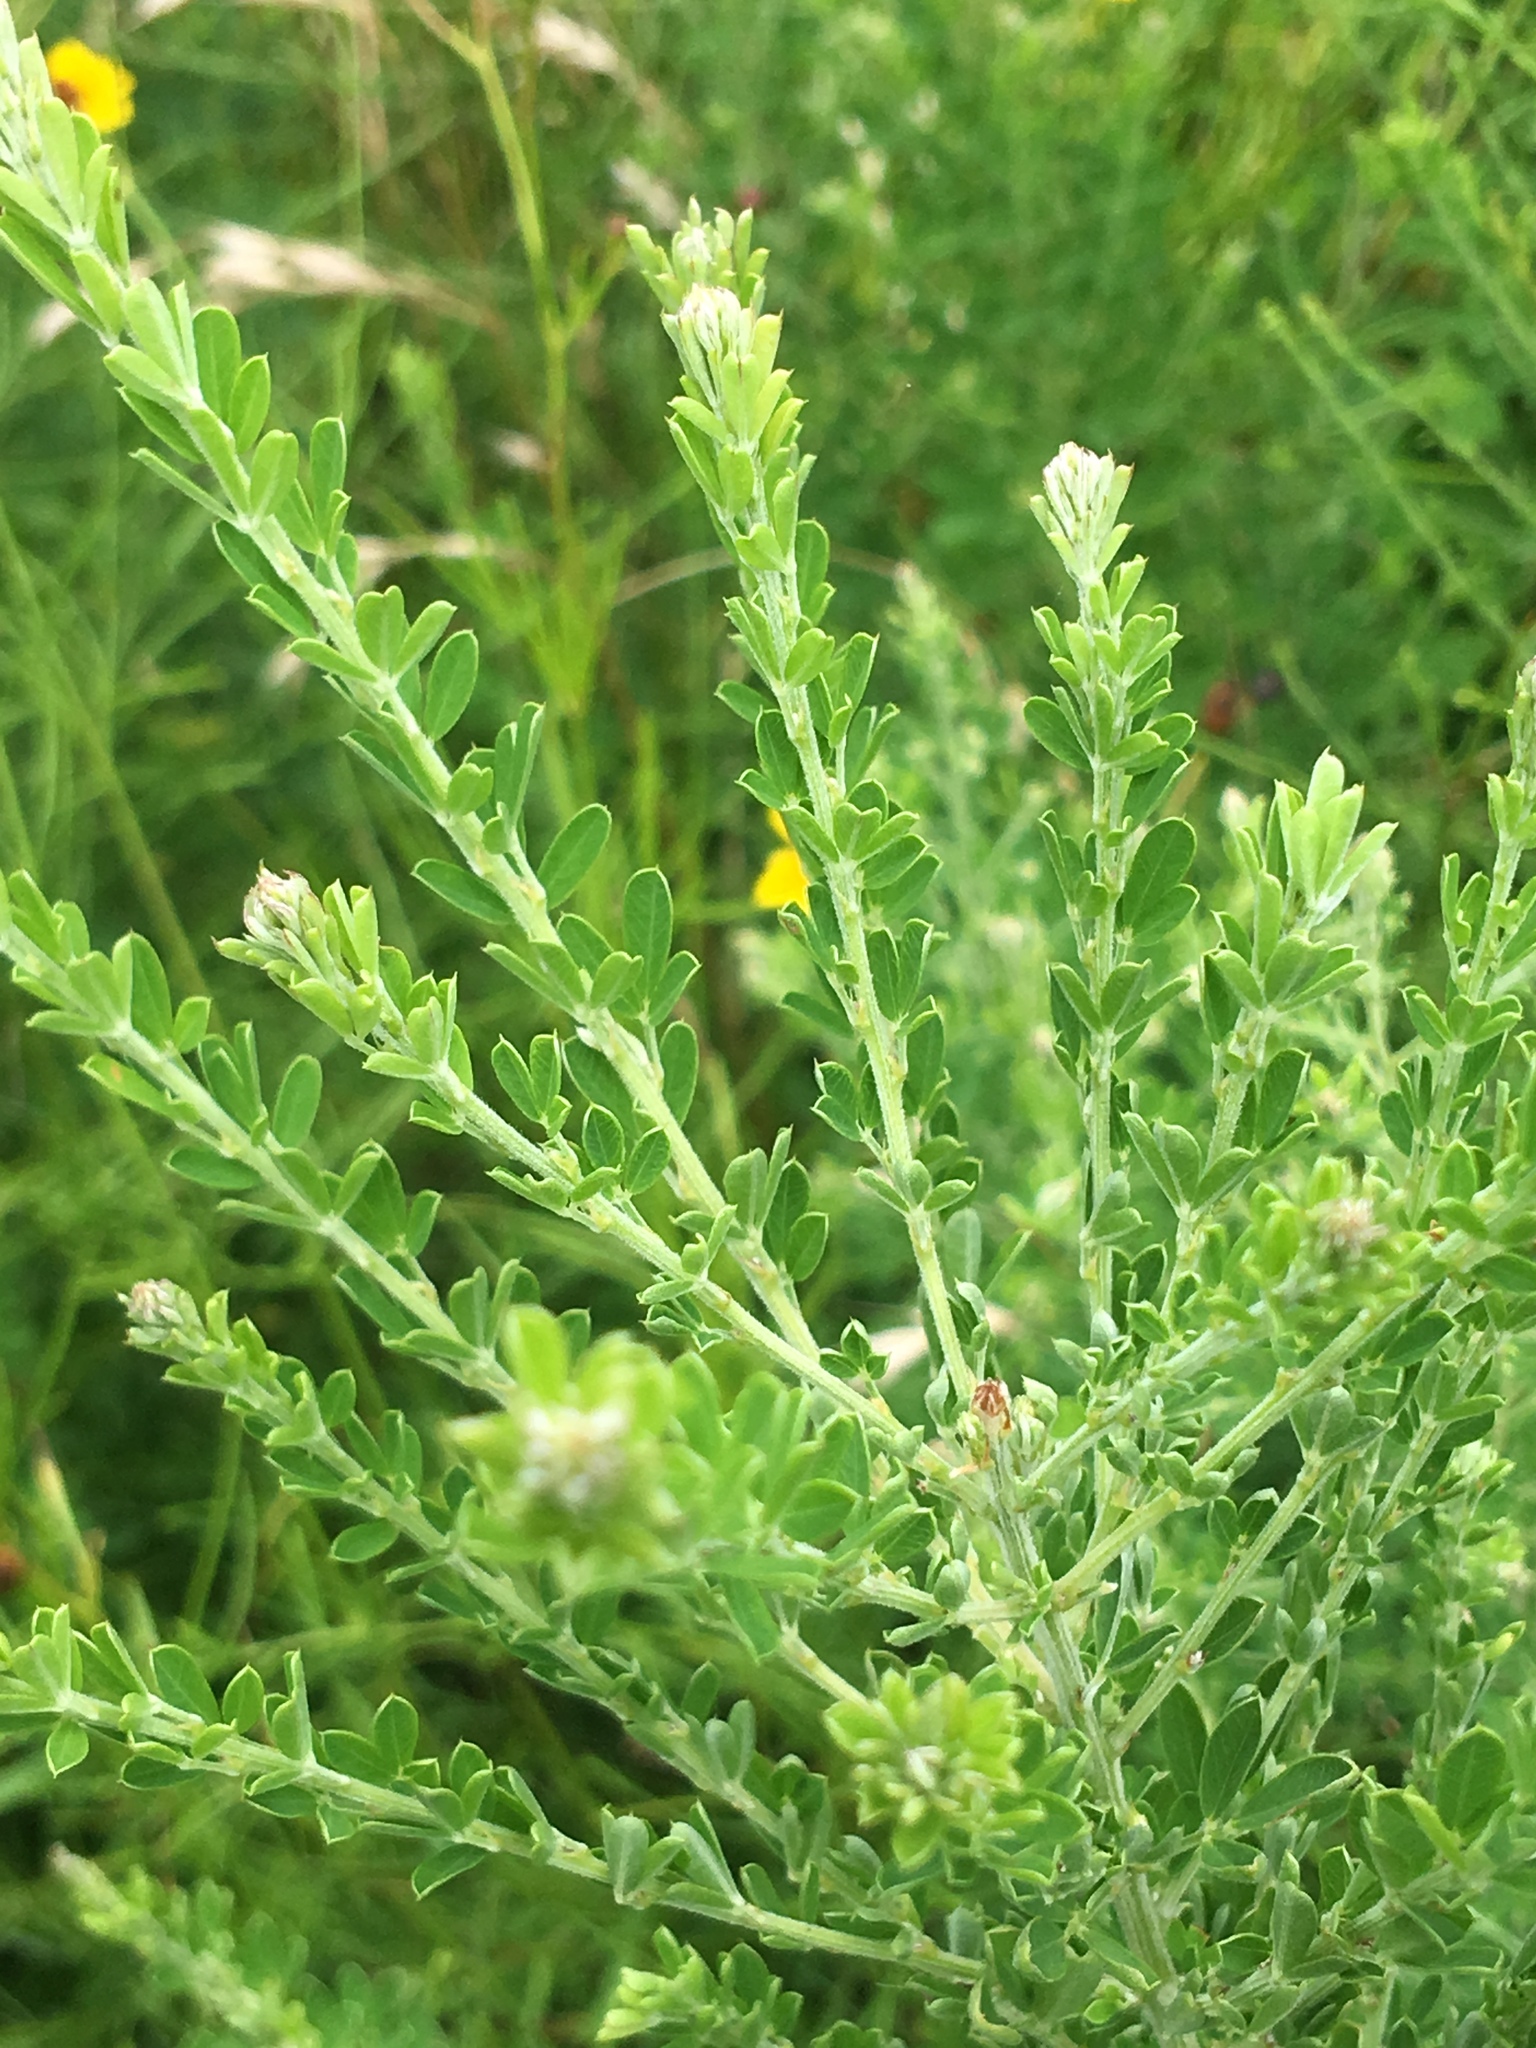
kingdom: Plantae
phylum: Tracheophyta
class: Magnoliopsida
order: Fabales
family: Fabaceae
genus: Lespedeza
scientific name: Lespedeza cuneata
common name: Chinese bush-clover
